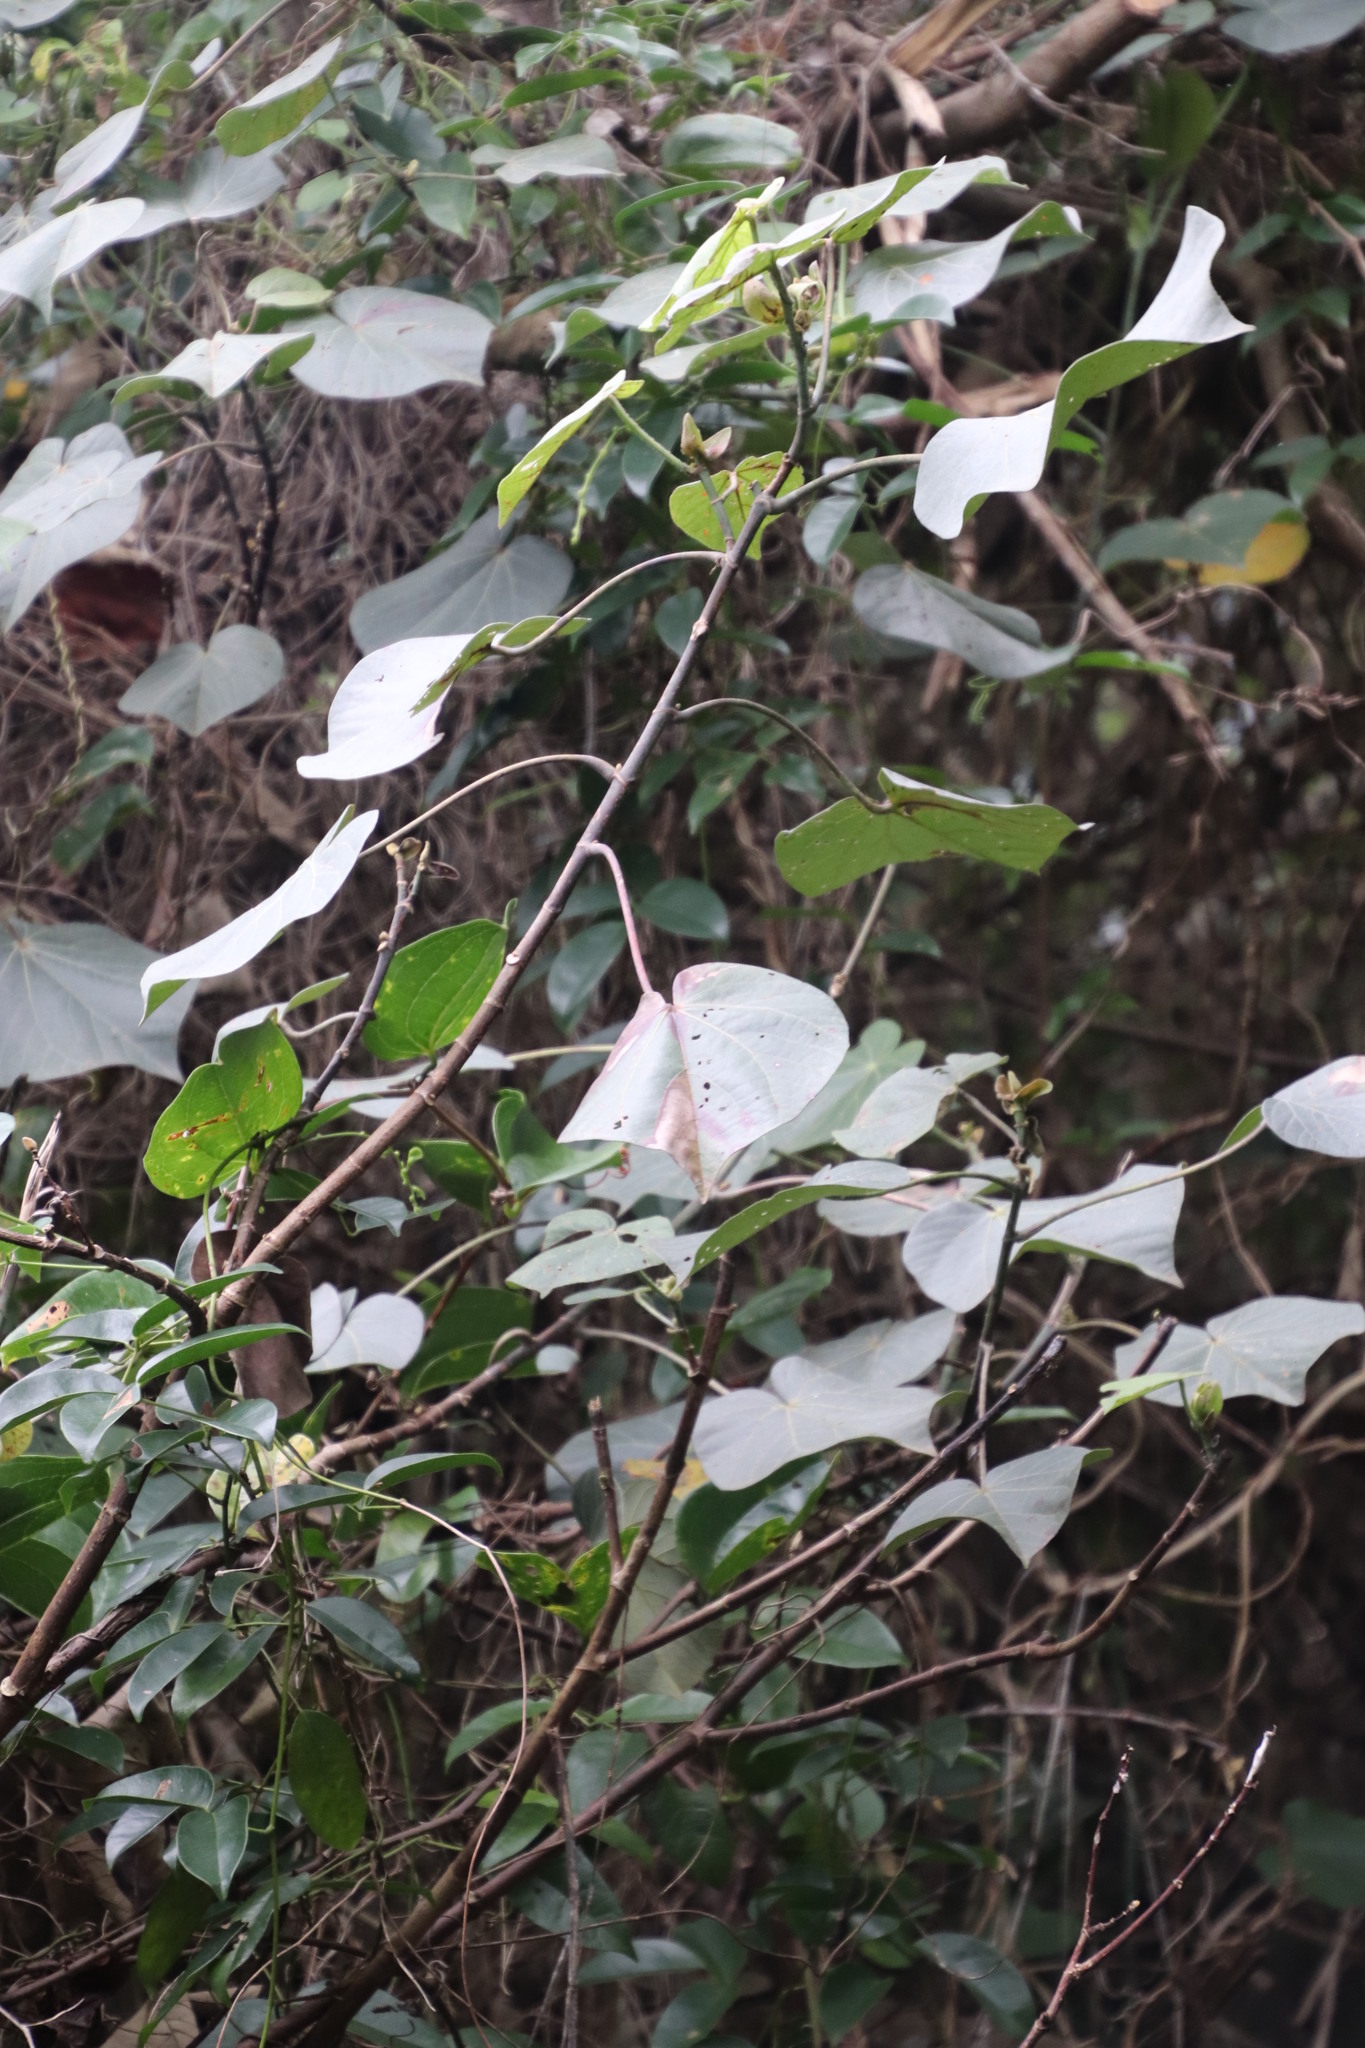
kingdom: Plantae
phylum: Tracheophyta
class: Magnoliopsida
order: Malvales
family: Malvaceae
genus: Talipariti
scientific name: Talipariti tiliaceum
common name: Sea hibiscus
